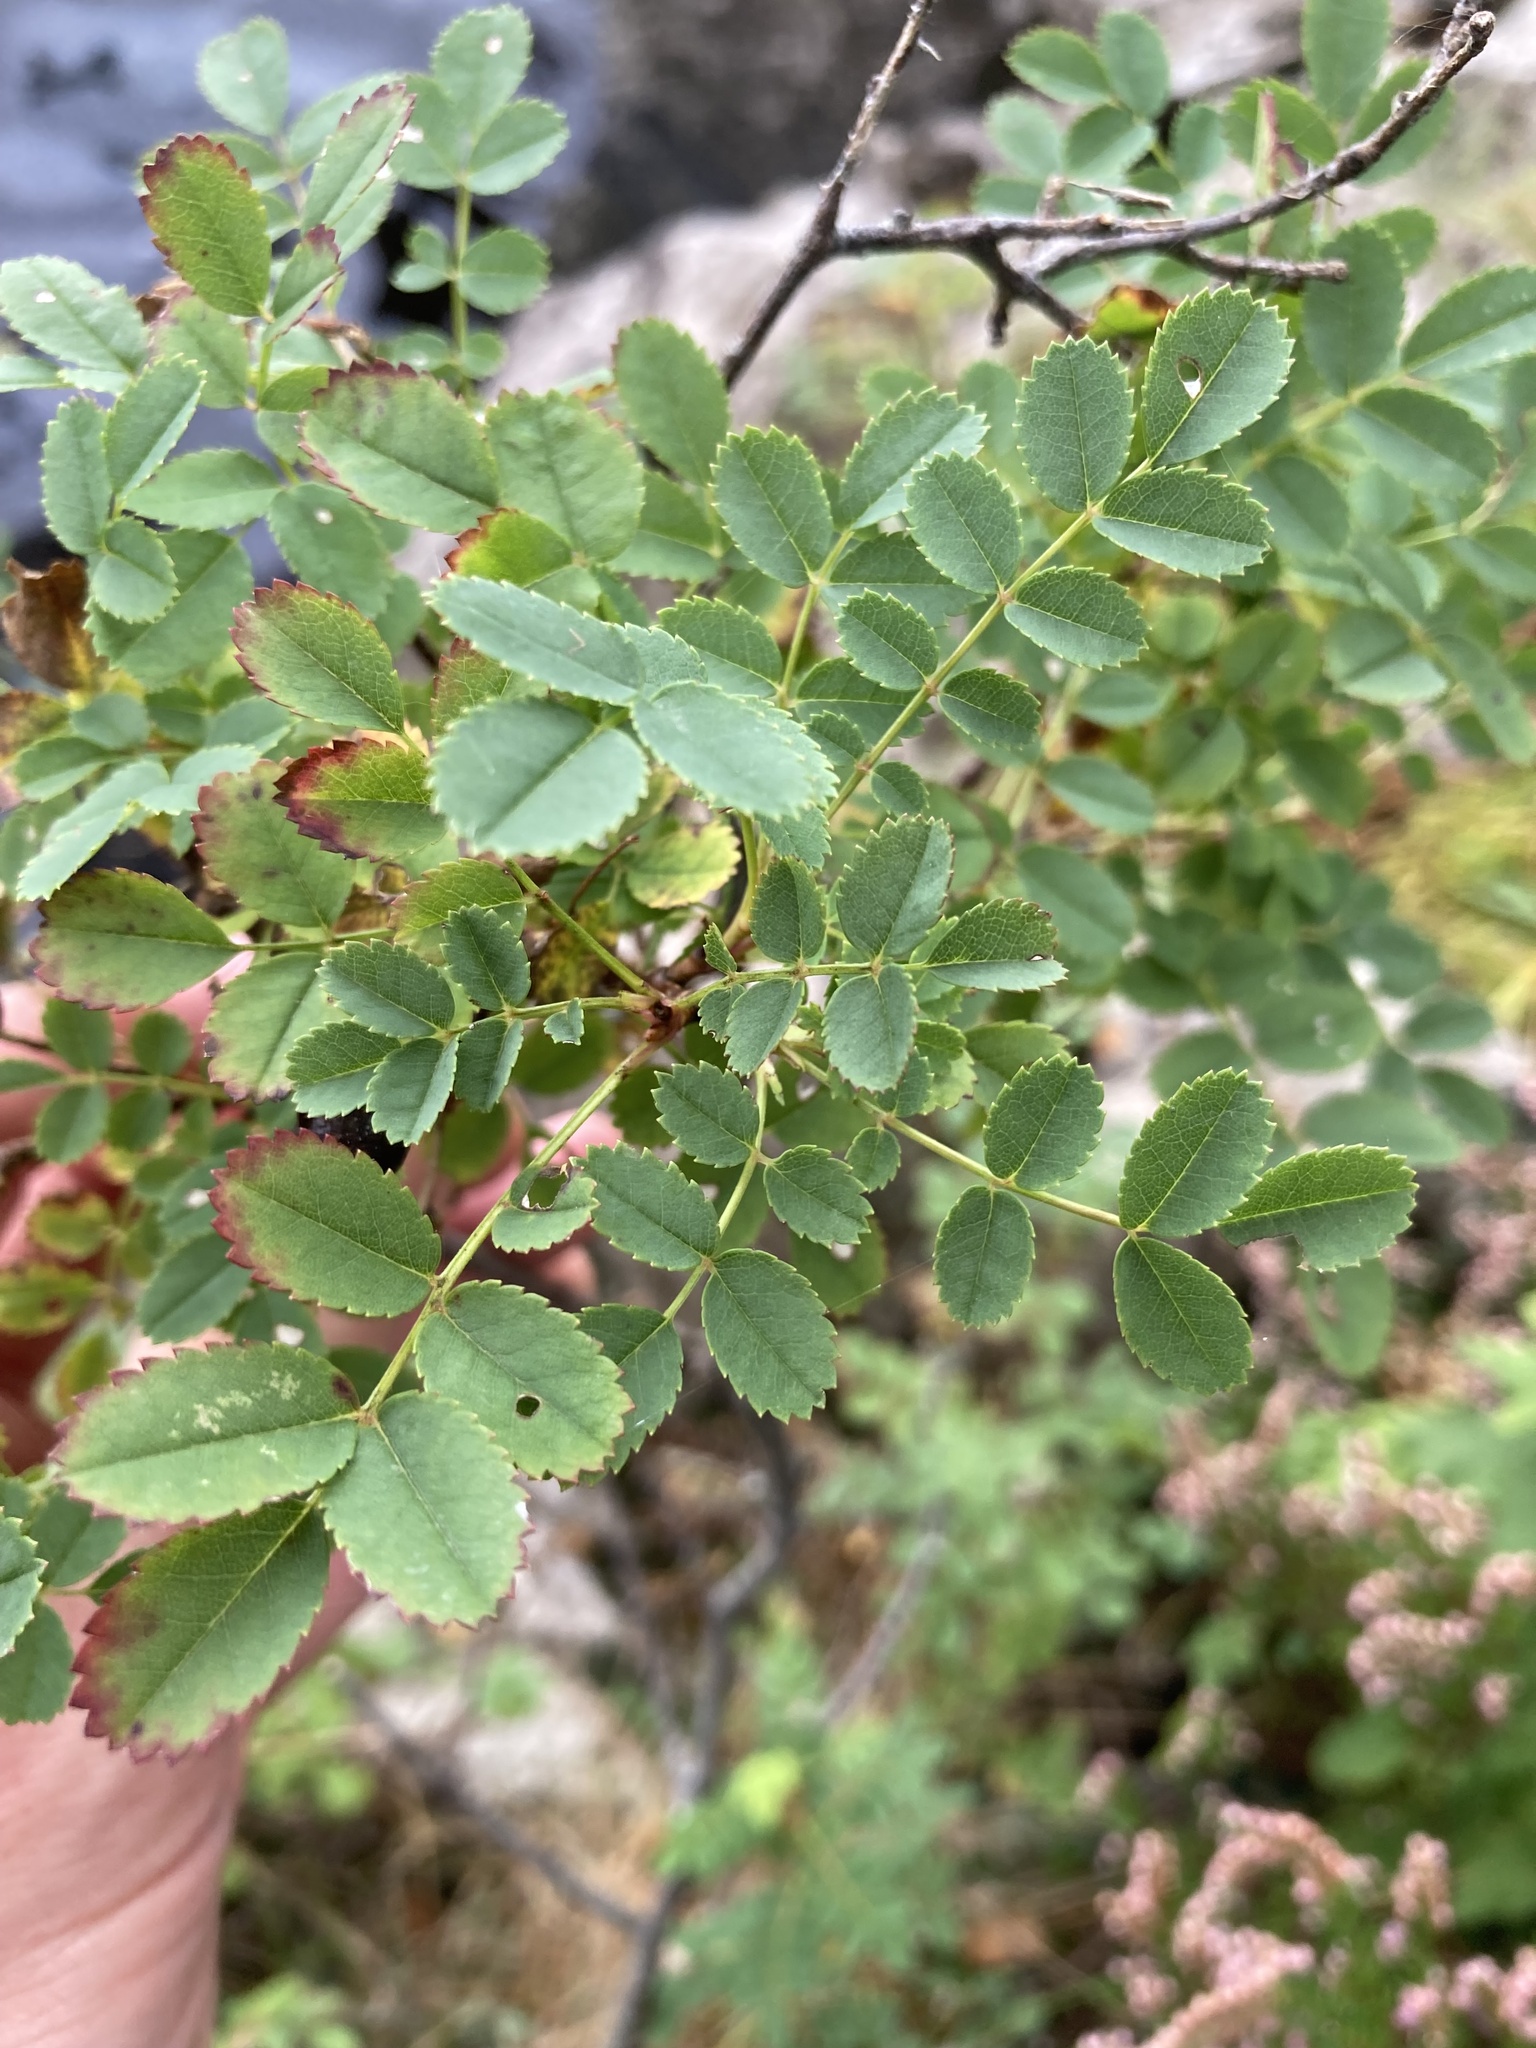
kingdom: Plantae
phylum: Tracheophyta
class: Magnoliopsida
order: Rosales
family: Rosaceae
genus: Rosa
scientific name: Rosa spinosissima
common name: Burnet rose
